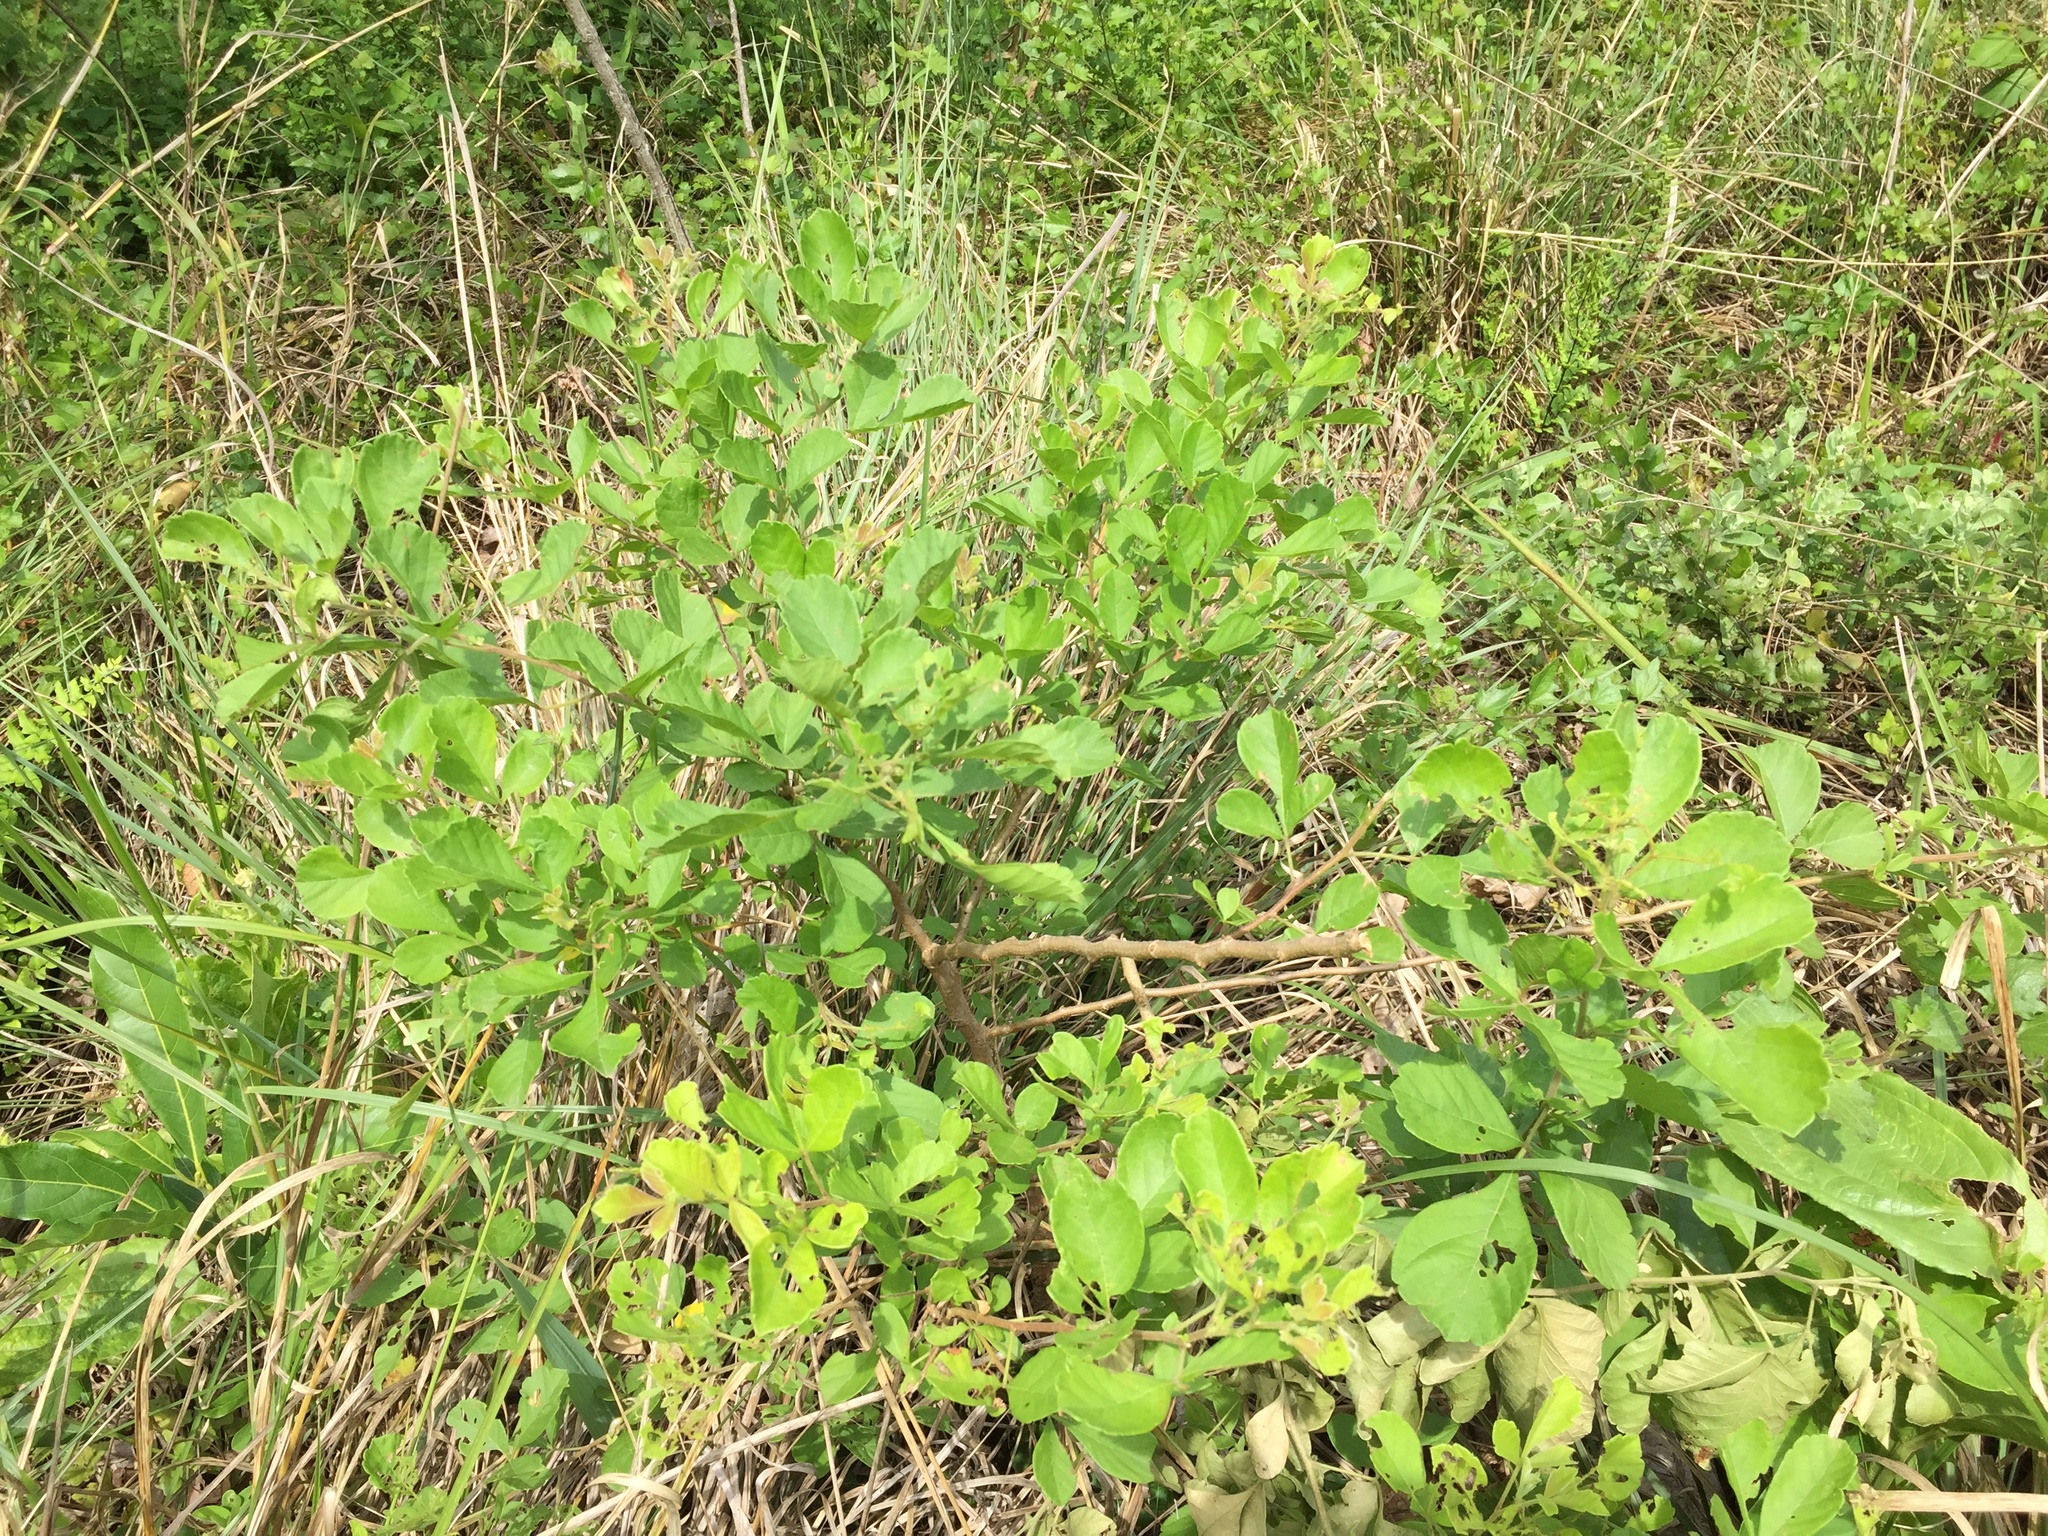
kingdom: Plantae
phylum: Tracheophyta
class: Magnoliopsida
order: Sapindales
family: Anacardiaceae
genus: Searsia
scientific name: Searsia rehmanniana
